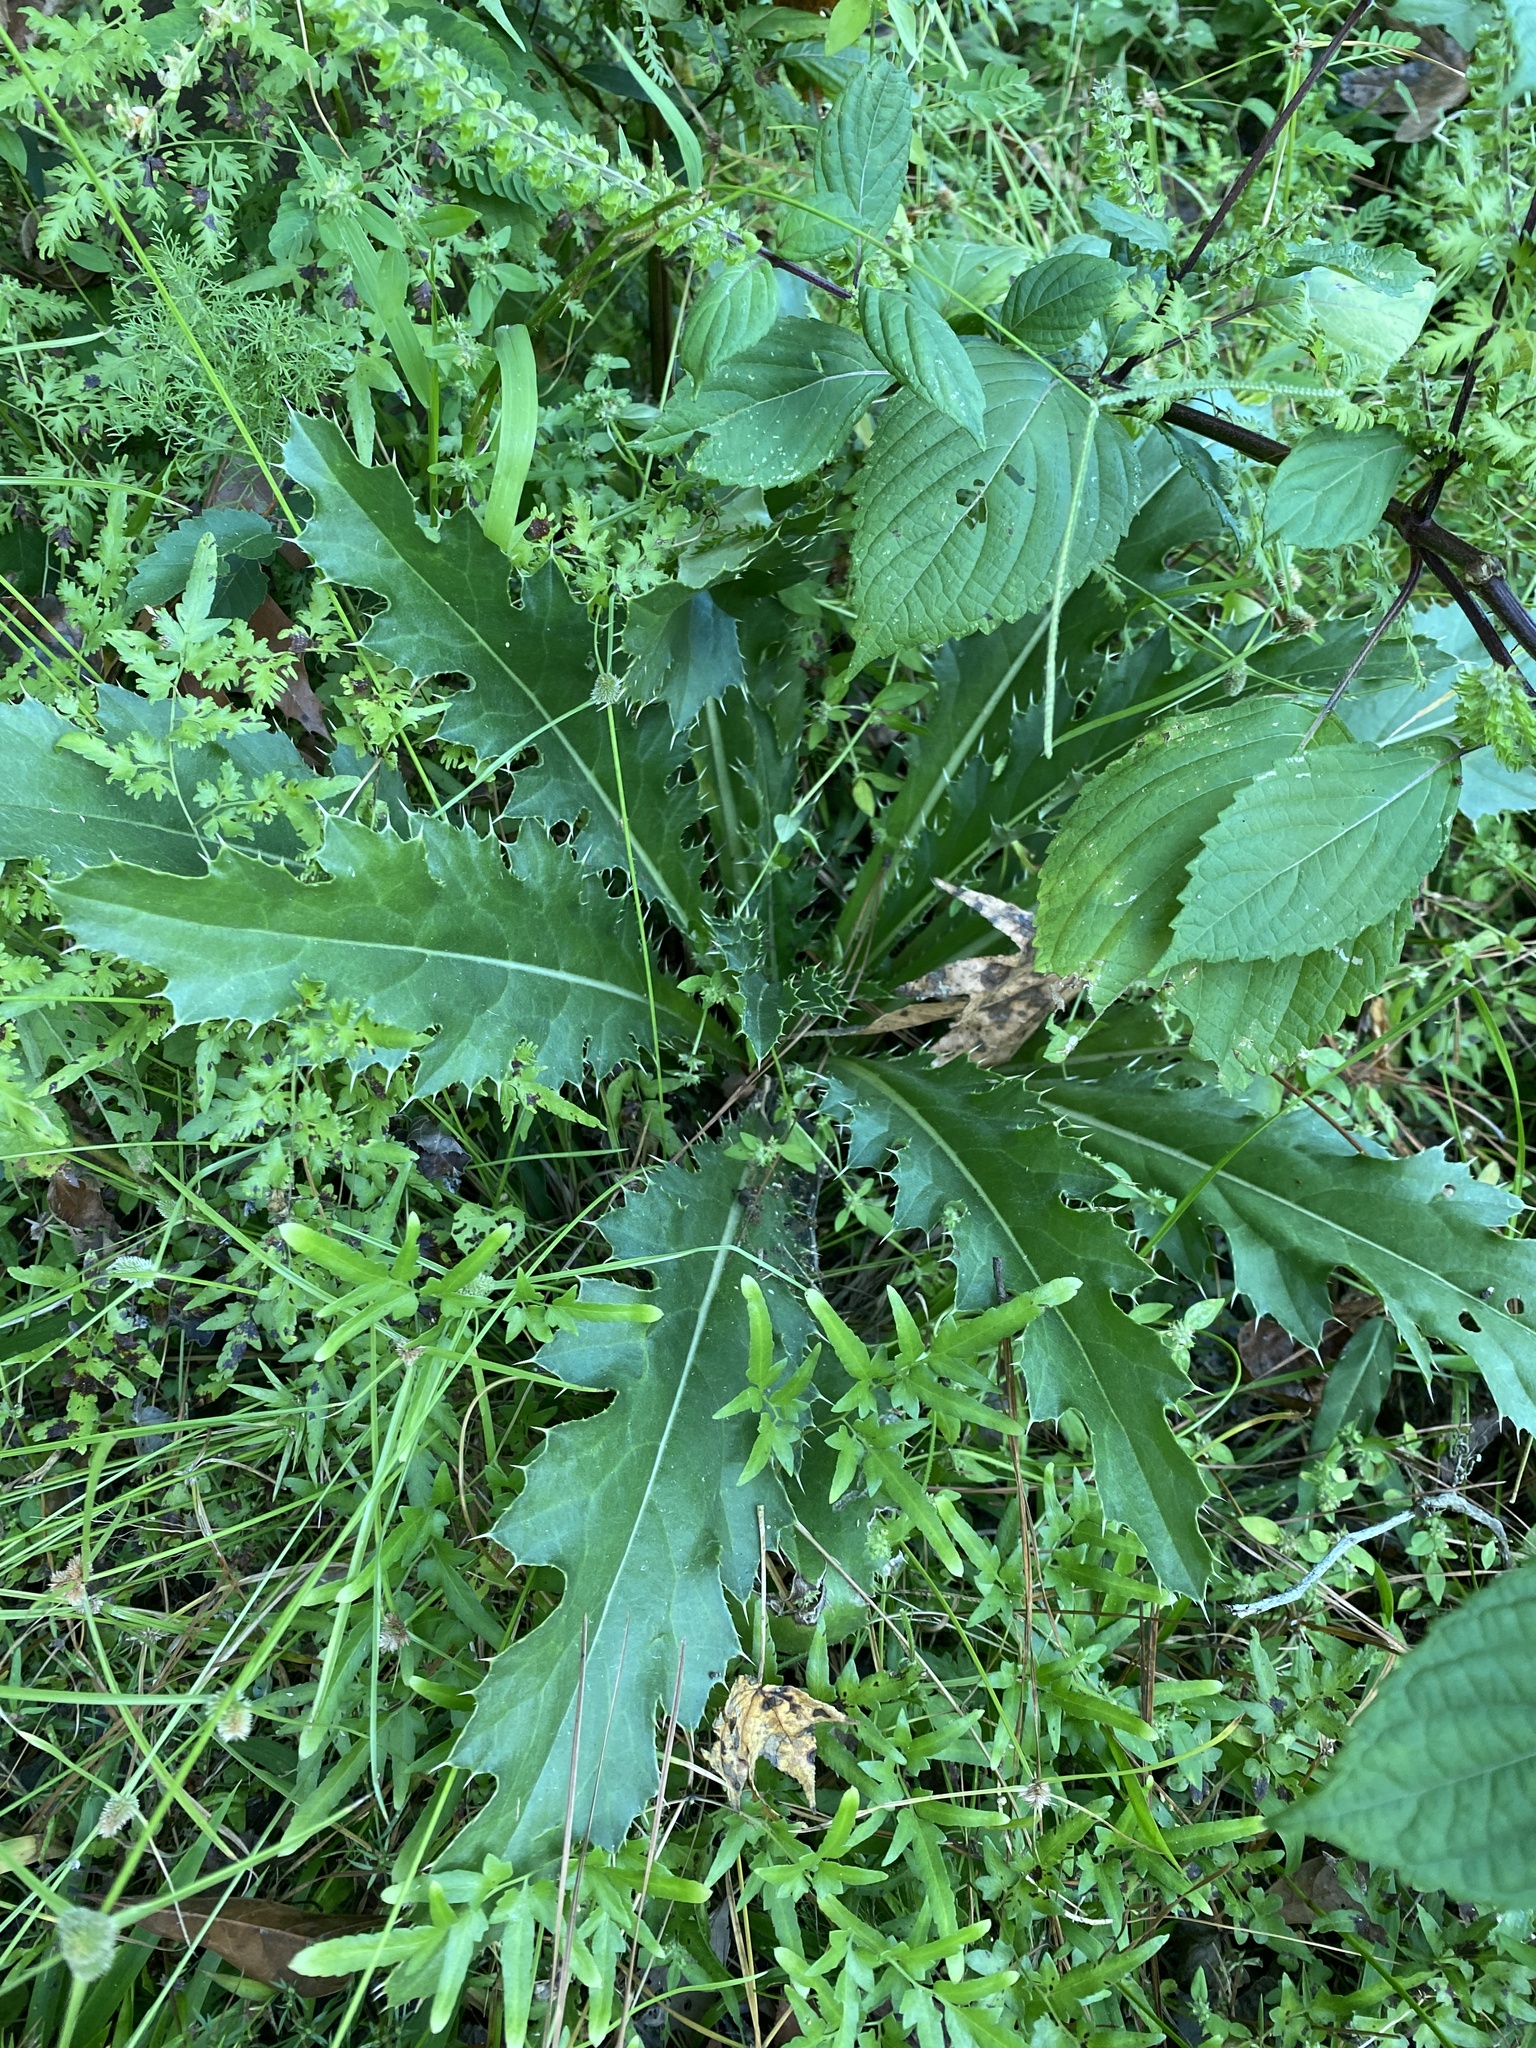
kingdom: Plantae
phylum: Tracheophyta
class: Magnoliopsida
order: Asterales
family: Asteraceae
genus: Cirsium
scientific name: Cirsium horridulum
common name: Bristly thistle
